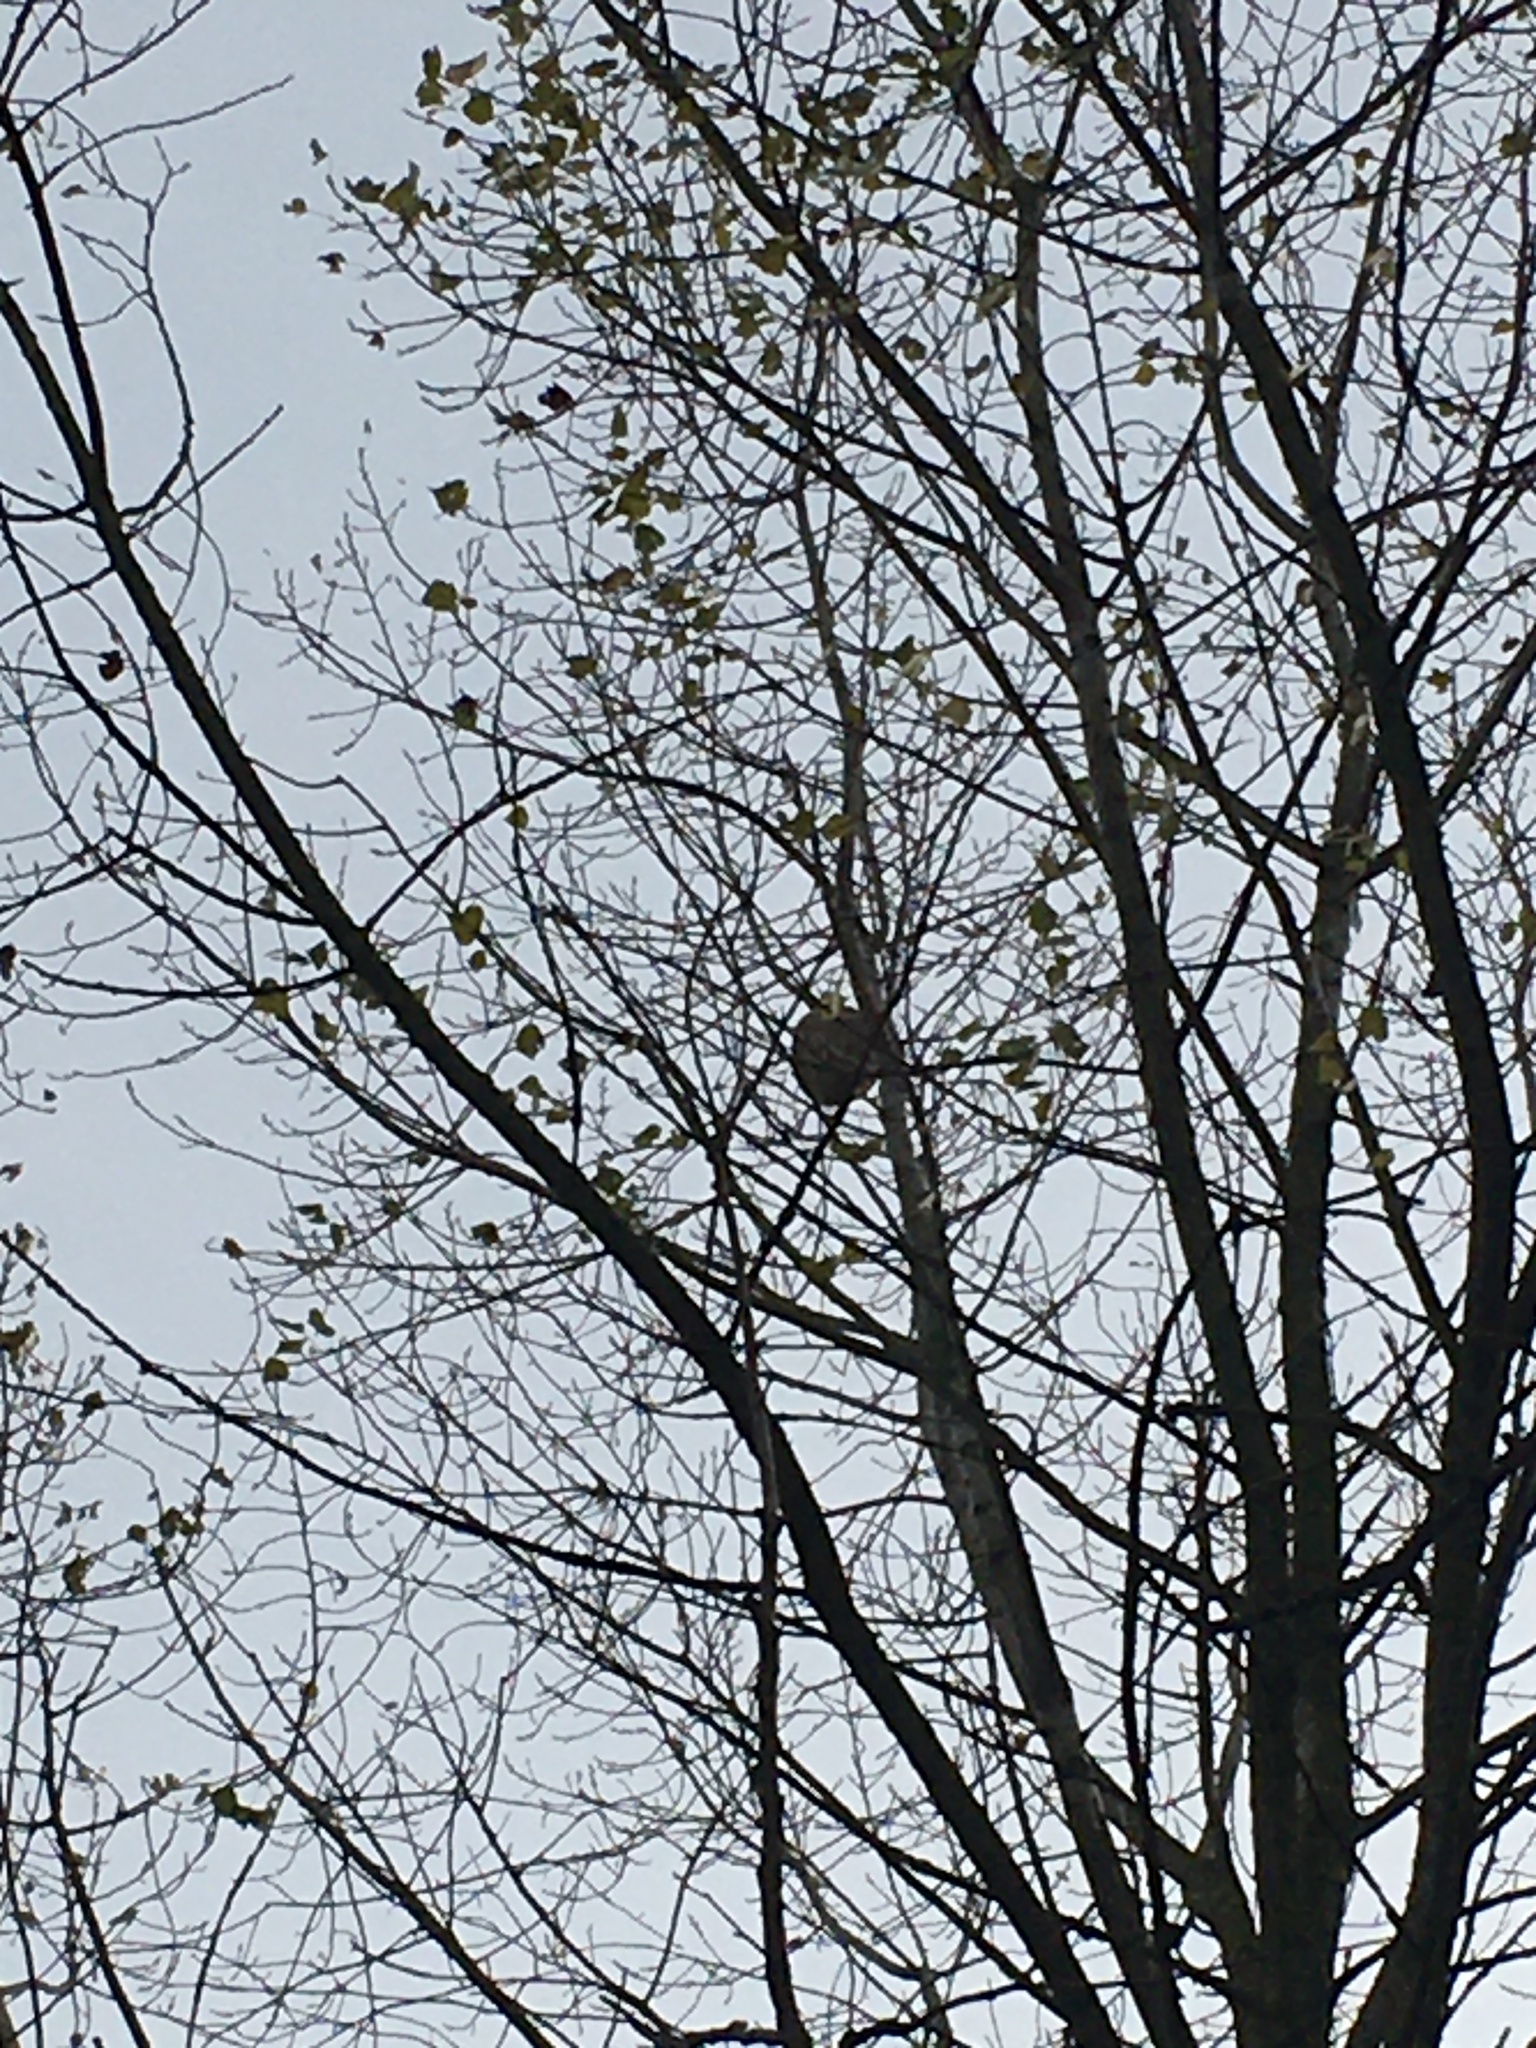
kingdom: Animalia
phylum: Arthropoda
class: Insecta
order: Hymenoptera
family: Vespidae
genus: Vespa
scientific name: Vespa velutina
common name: Asian hornet
